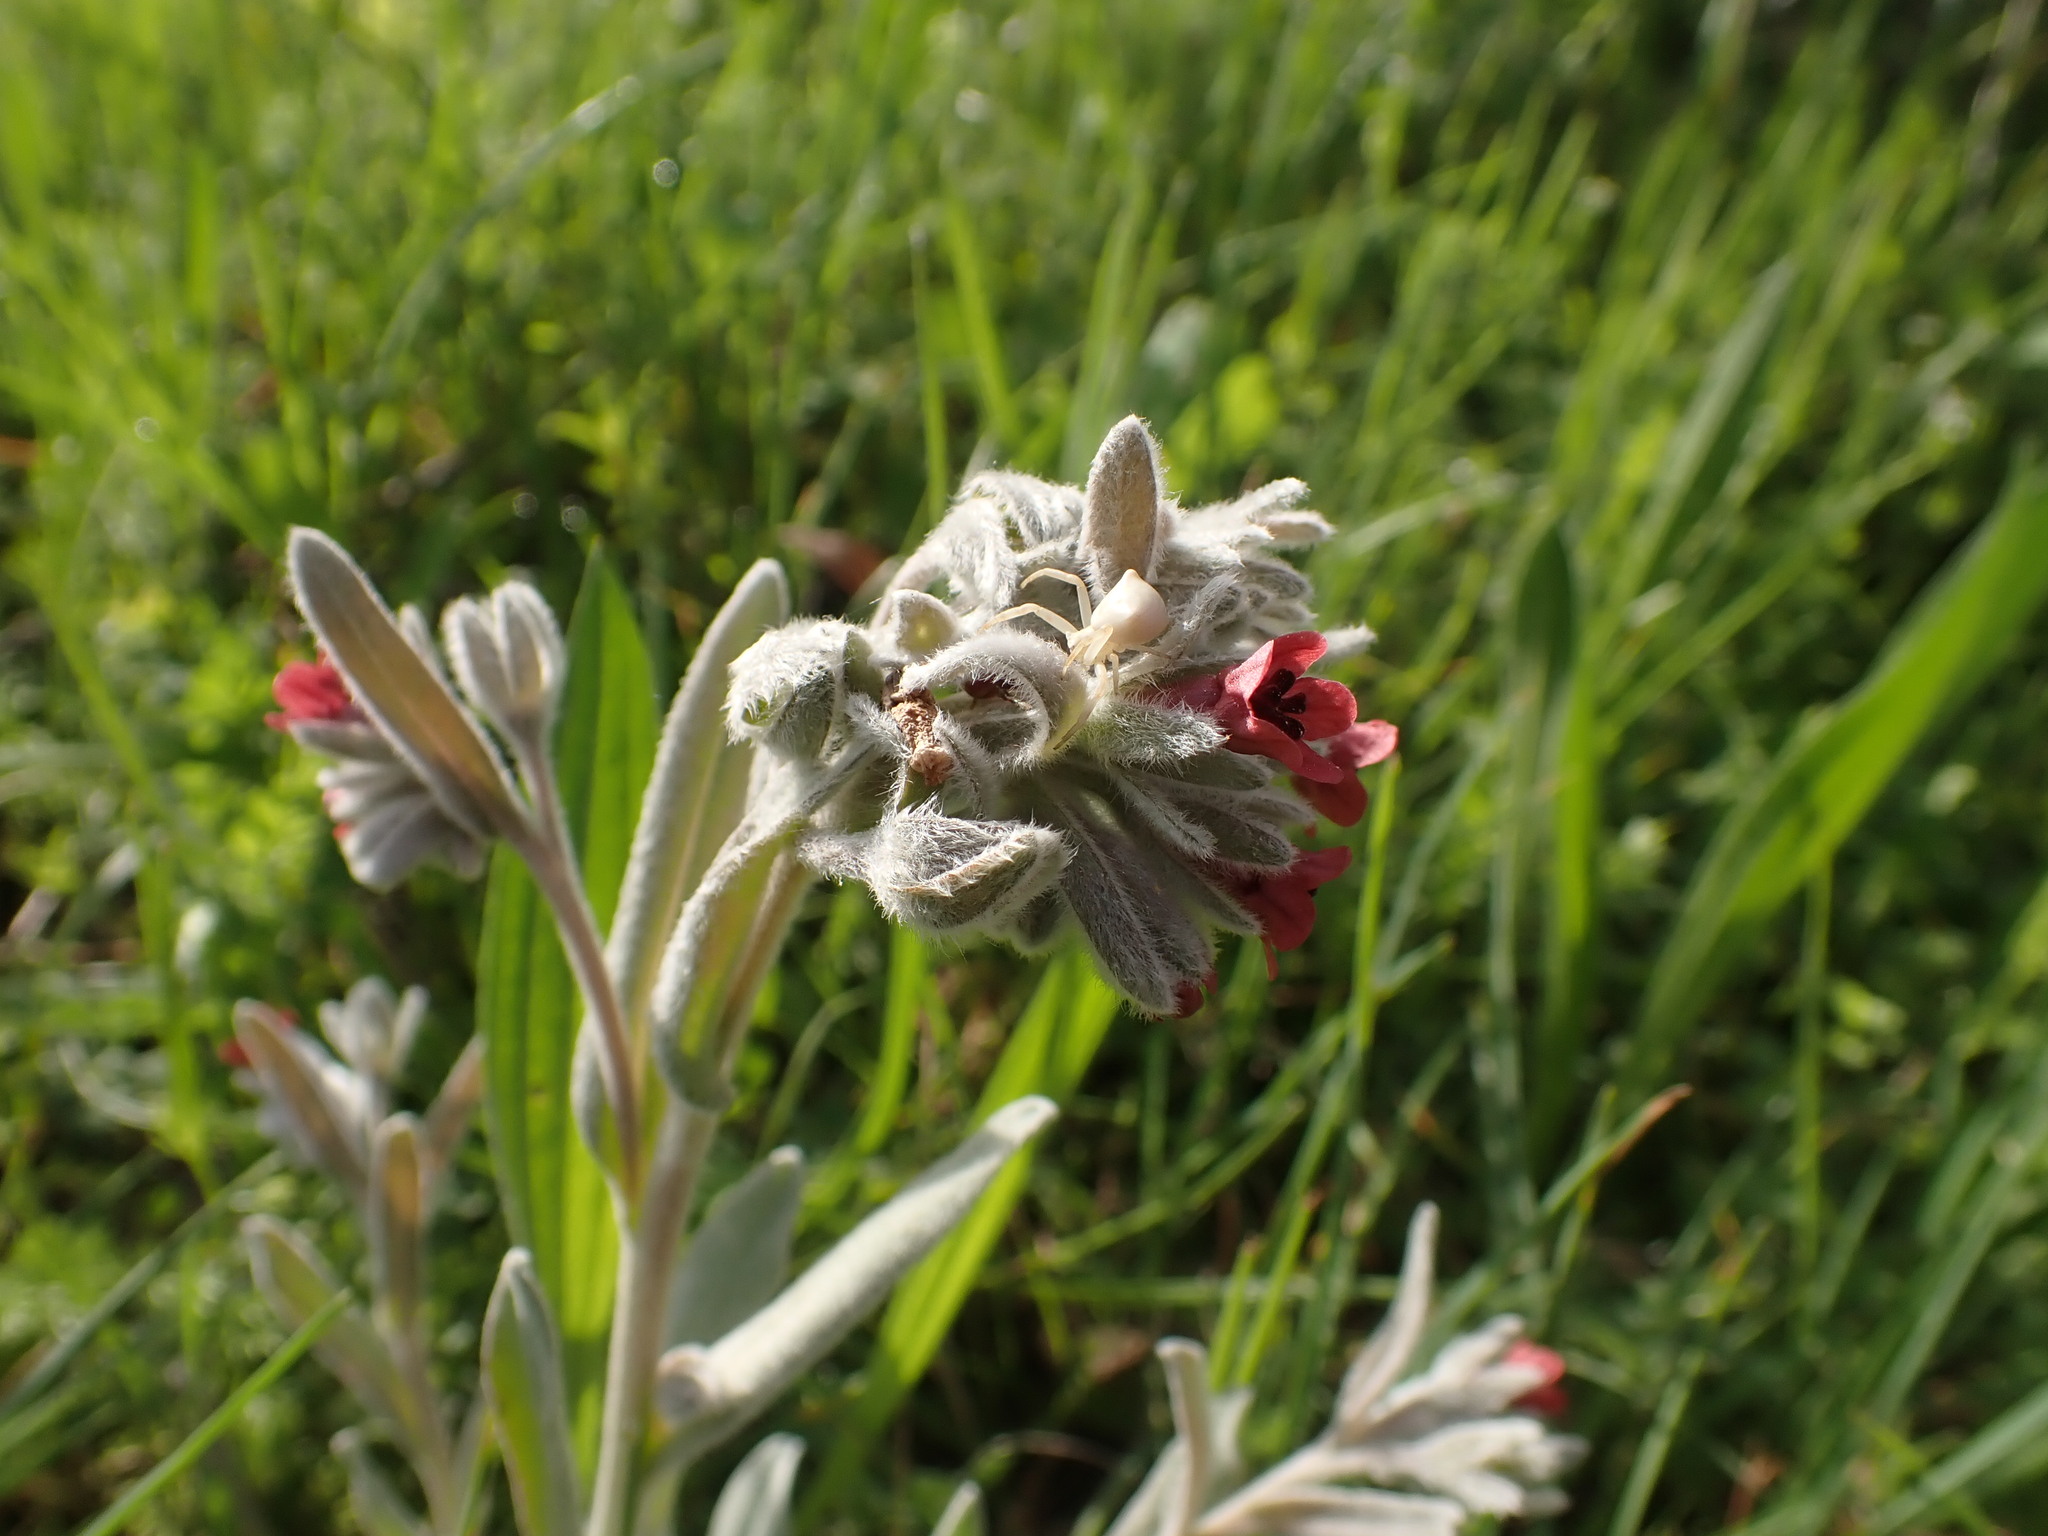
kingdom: Plantae
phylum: Tracheophyta
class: Magnoliopsida
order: Boraginales
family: Boraginaceae
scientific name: Boraginaceae
